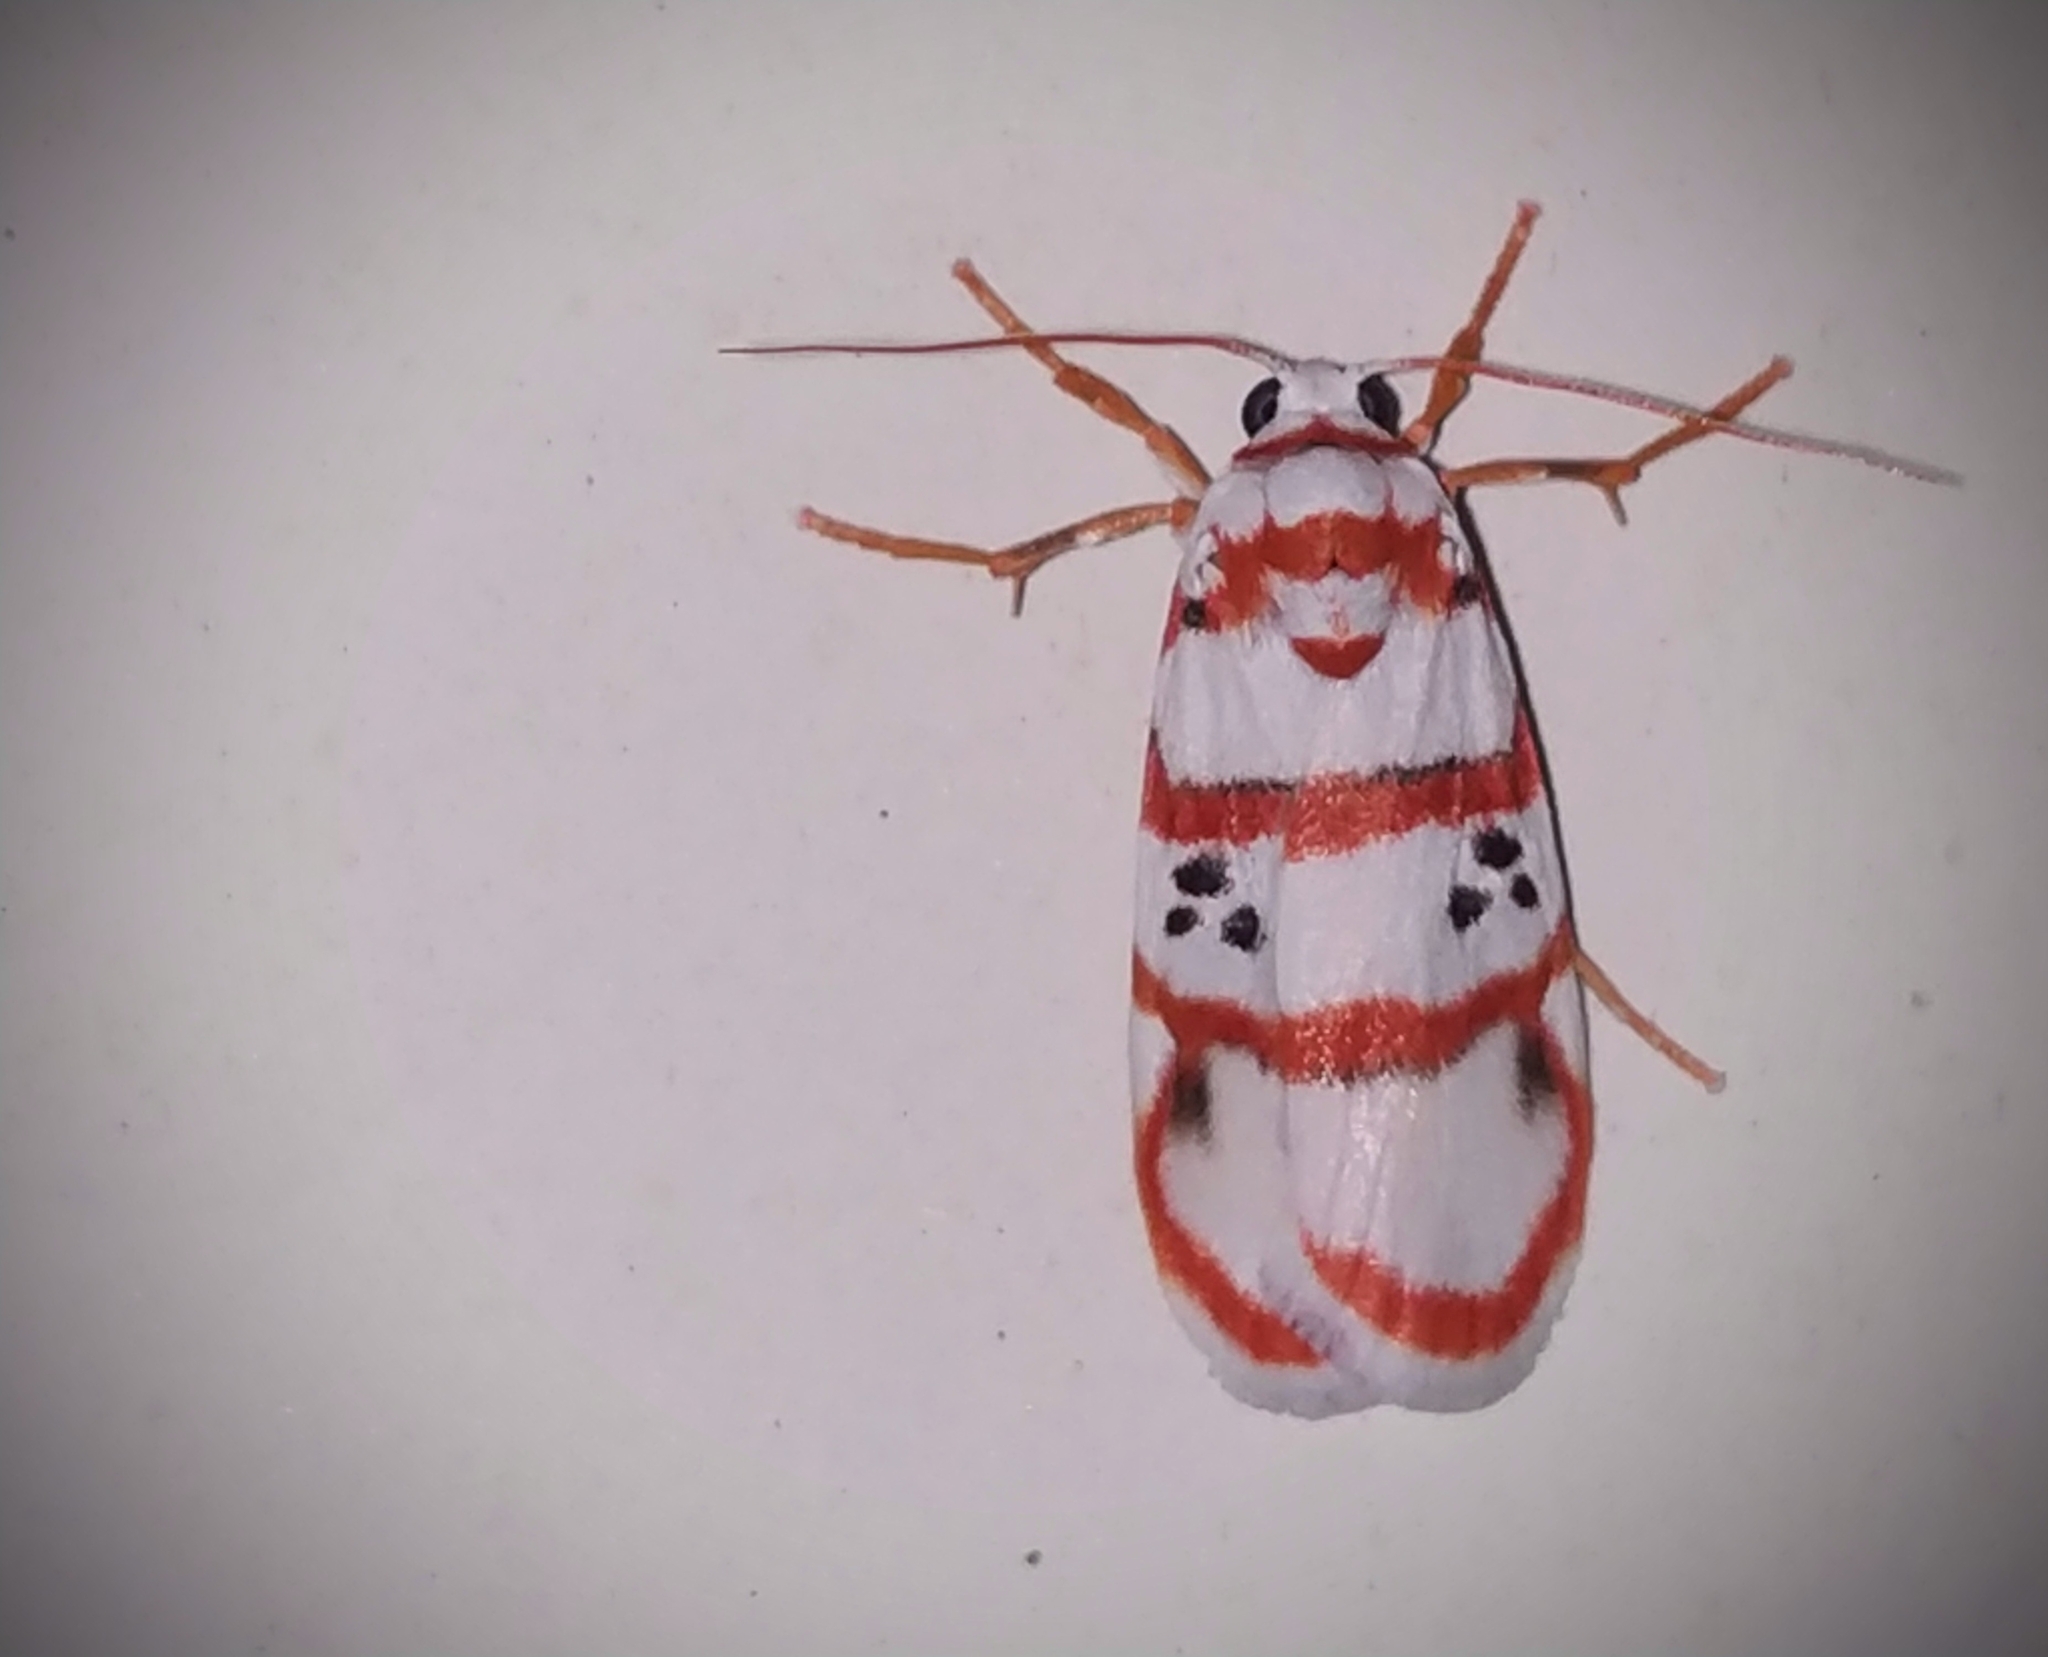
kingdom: Animalia
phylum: Arthropoda
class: Insecta
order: Lepidoptera
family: Erebidae
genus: Cyana
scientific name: Cyana peregrina
